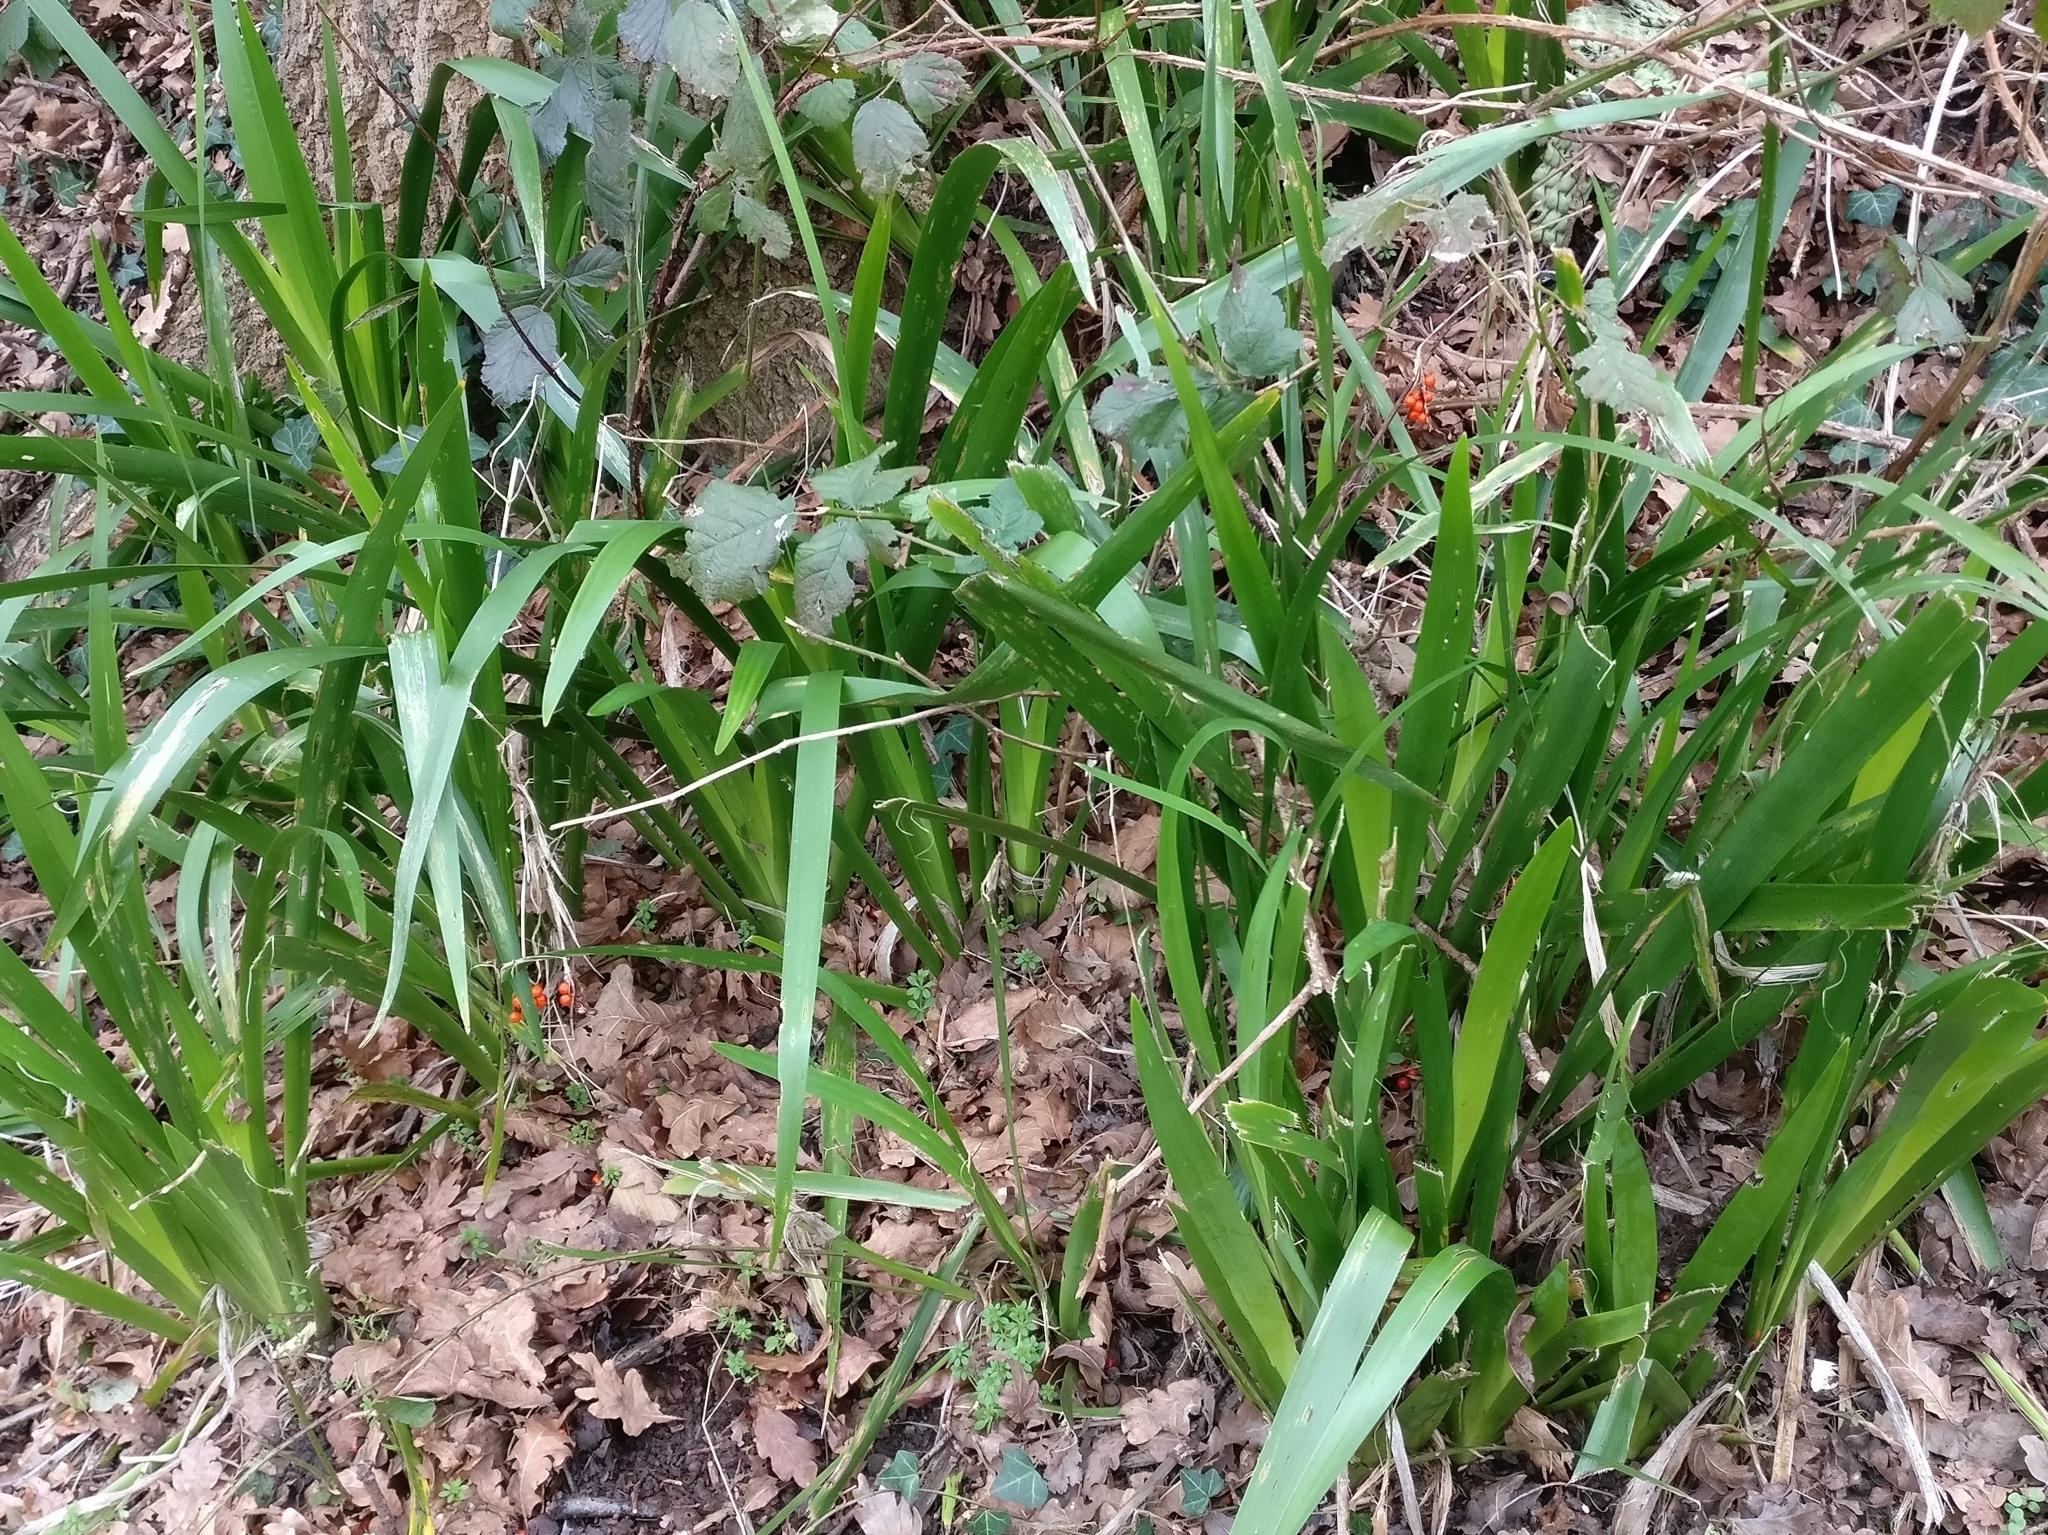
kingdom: Plantae
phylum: Tracheophyta
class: Liliopsida
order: Asparagales
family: Iridaceae
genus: Iris
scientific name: Iris foetidissima
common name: Stinking iris
